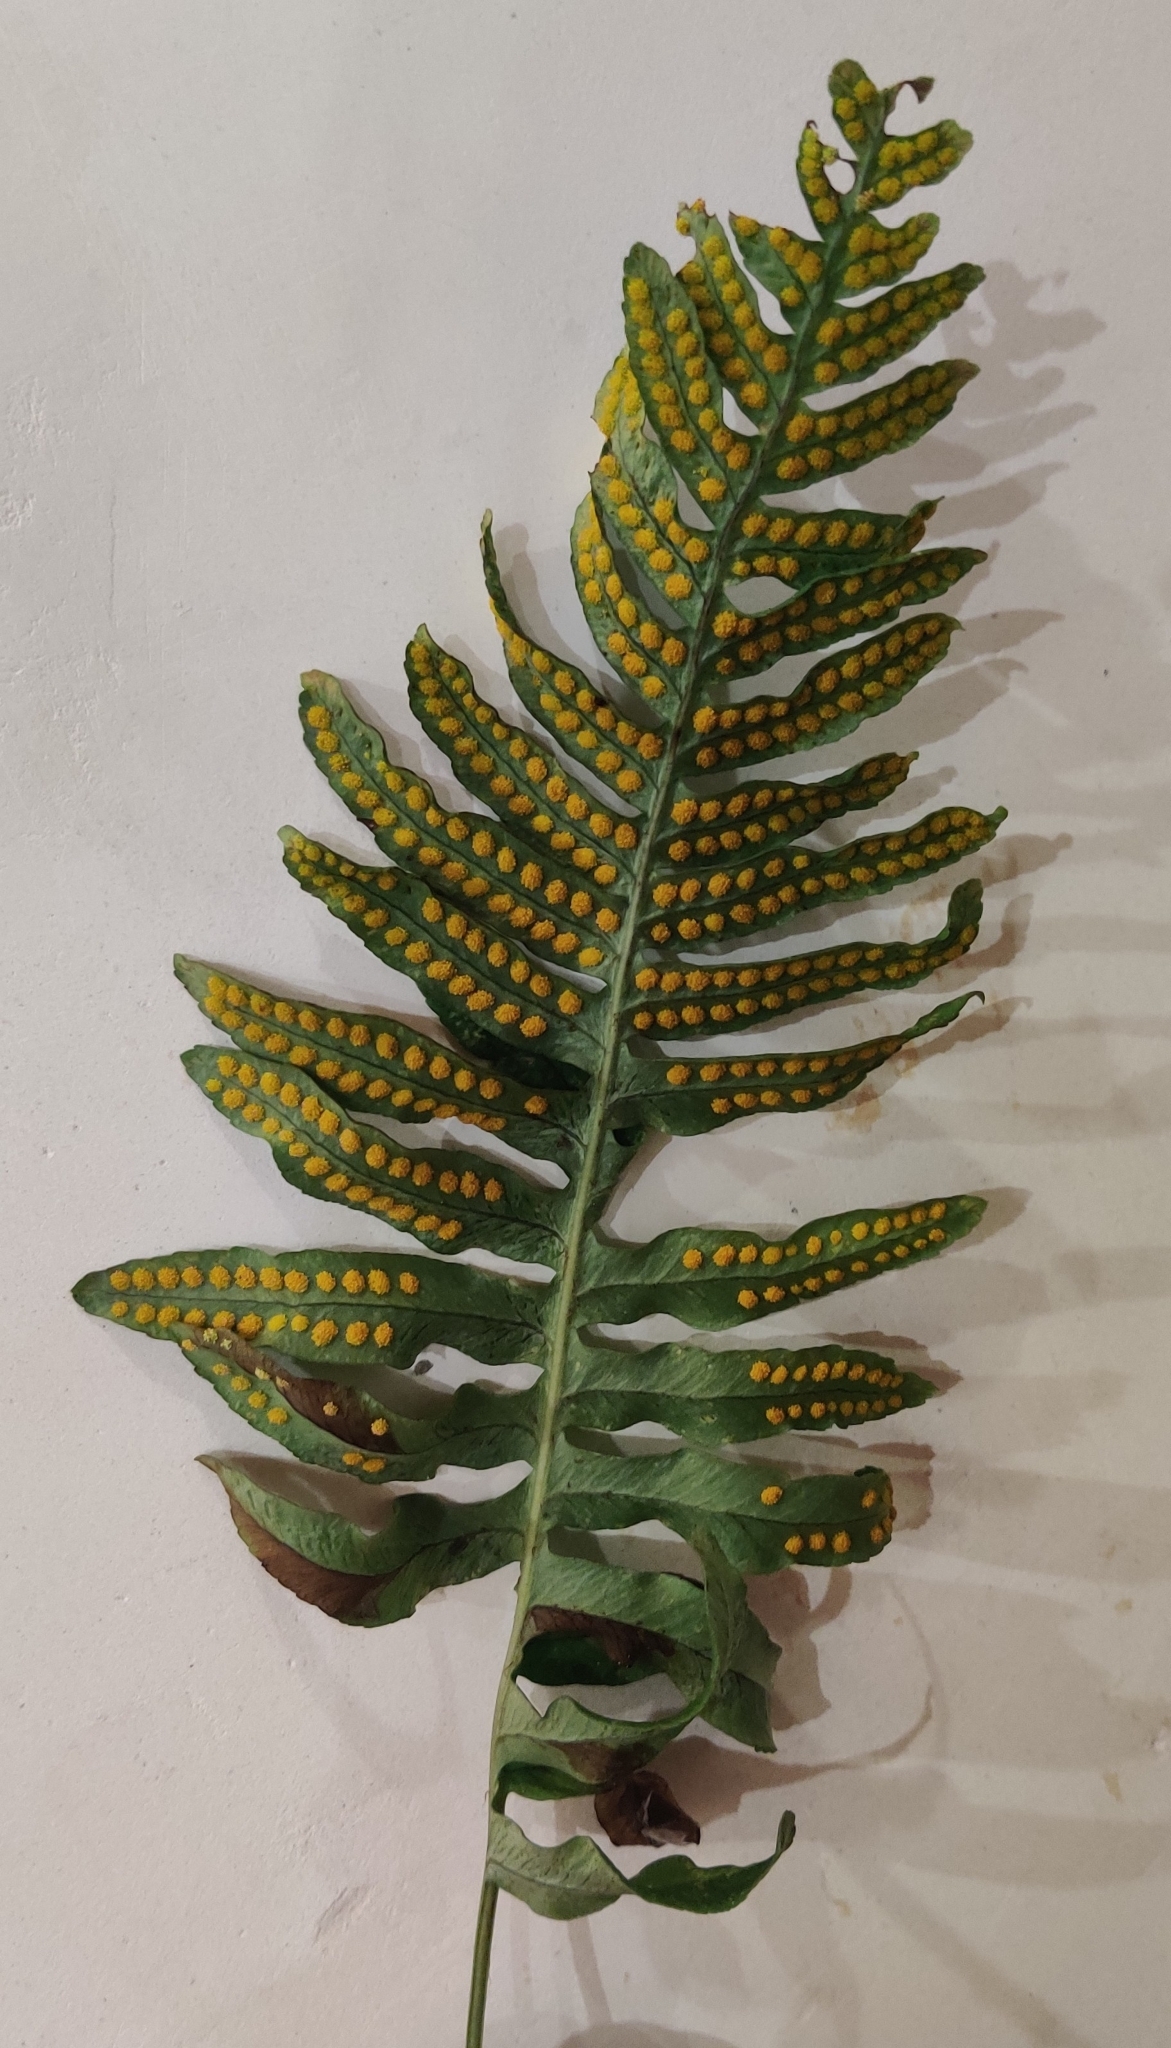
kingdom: Plantae
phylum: Tracheophyta
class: Polypodiopsida
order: Polypodiales
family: Polypodiaceae
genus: Polypodium
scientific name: Polypodium interjectum
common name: Intermediate polypody
